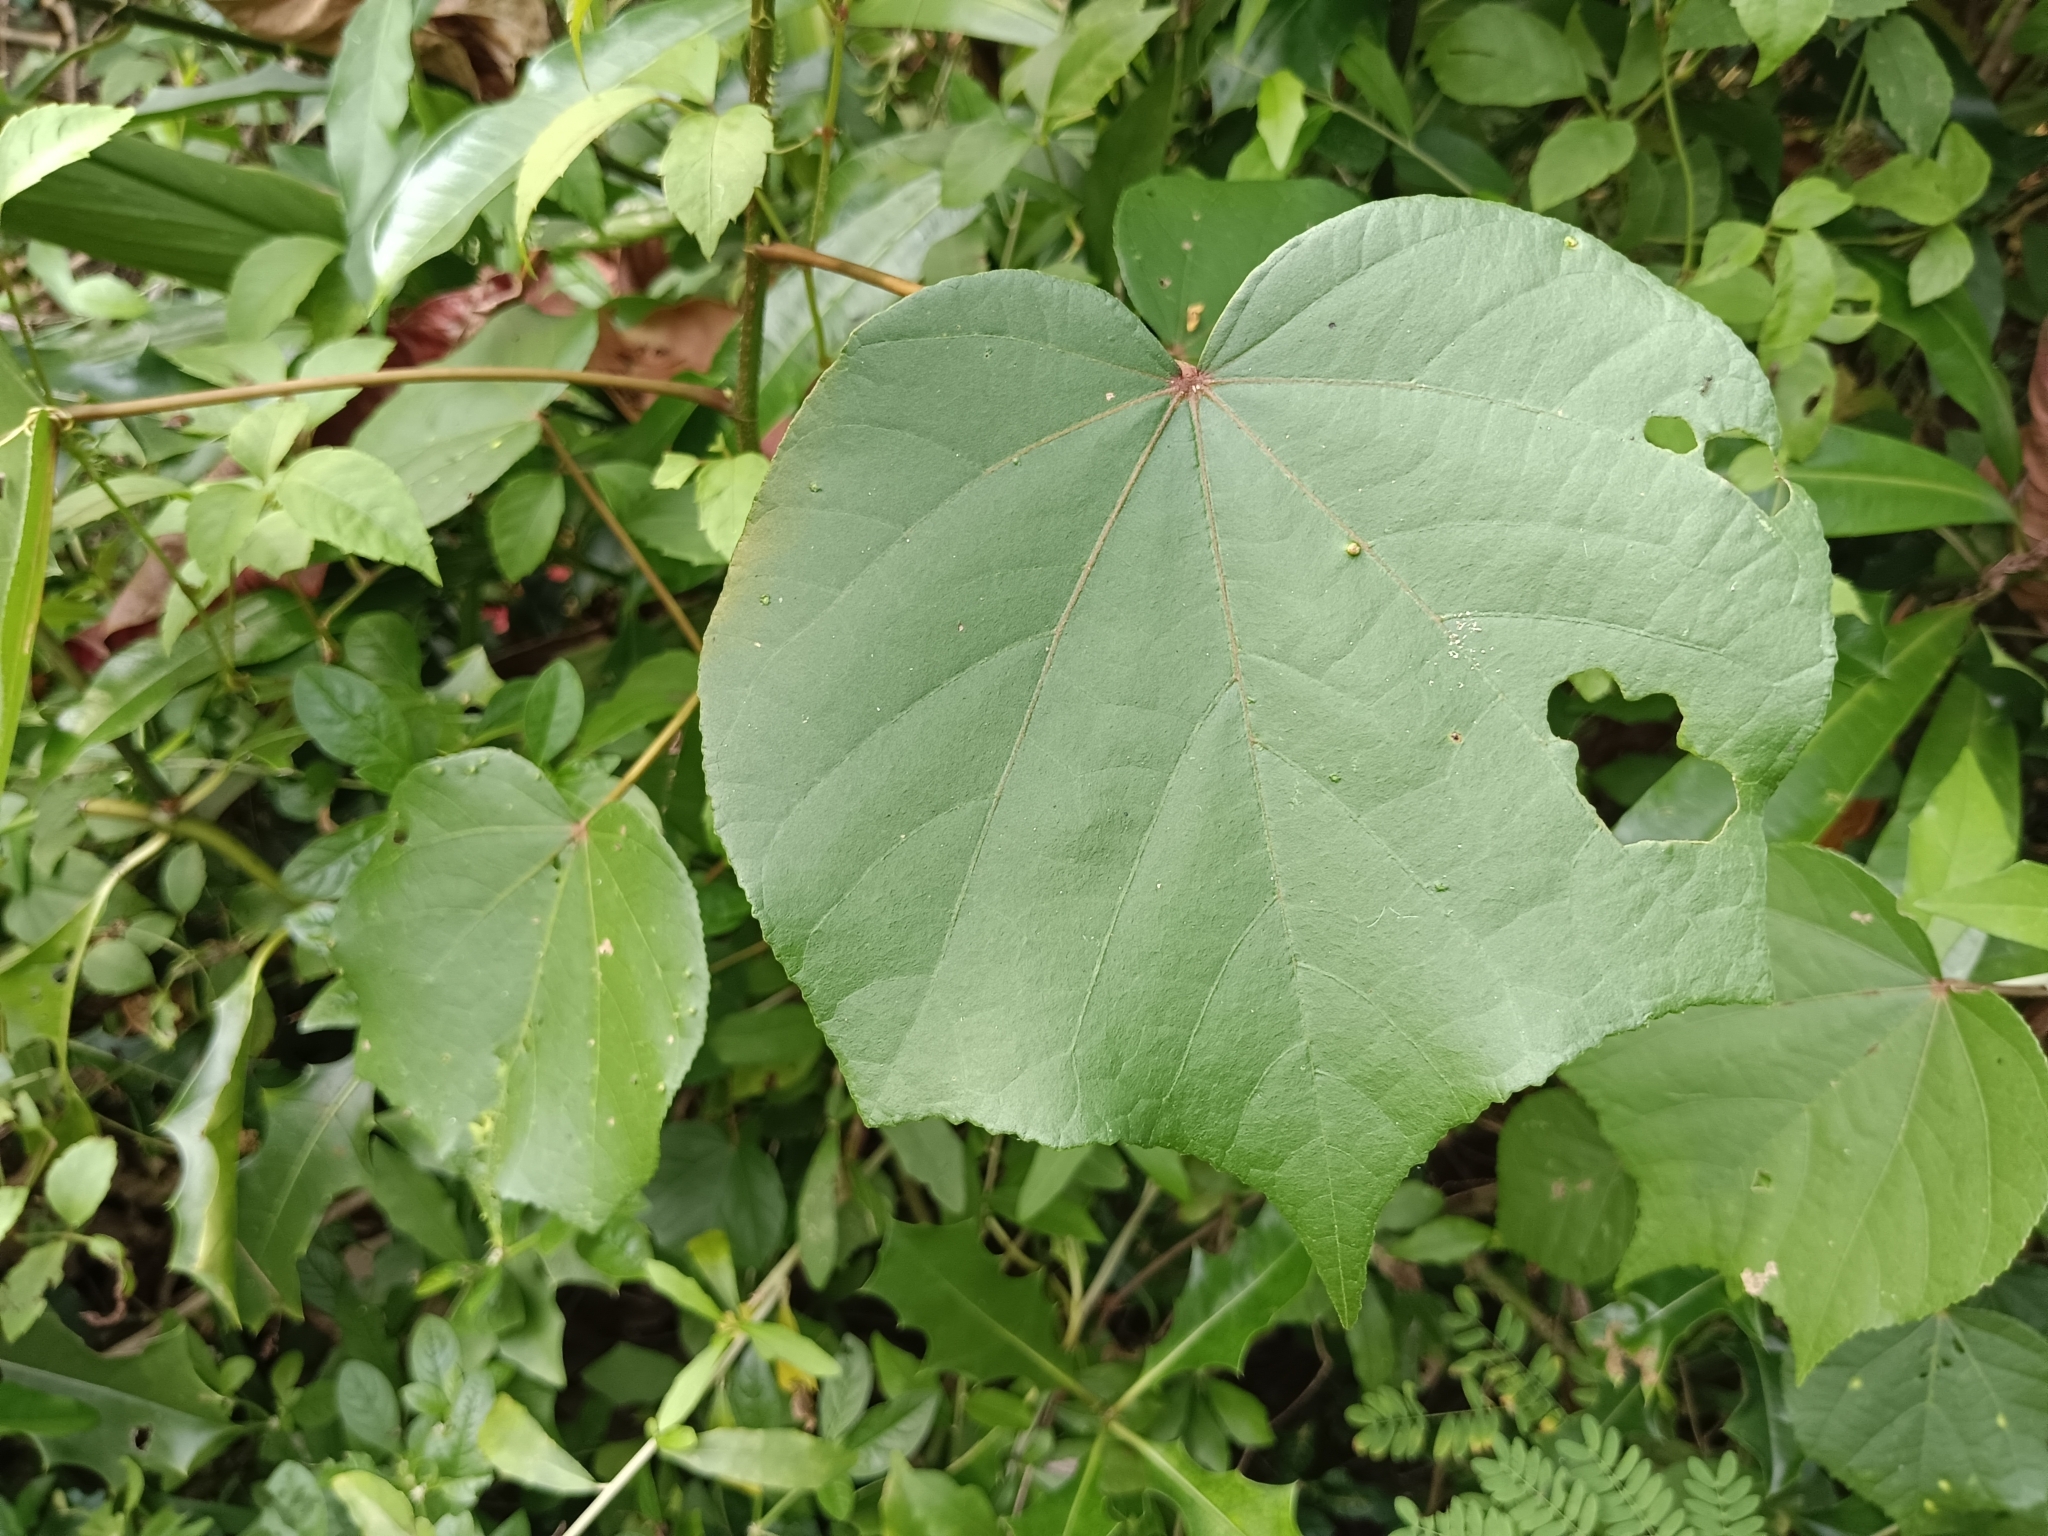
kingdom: Plantae
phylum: Tracheophyta
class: Magnoliopsida
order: Malvales
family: Malvaceae
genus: Talipariti
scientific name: Talipariti tiliaceum
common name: Sea hibiscus
